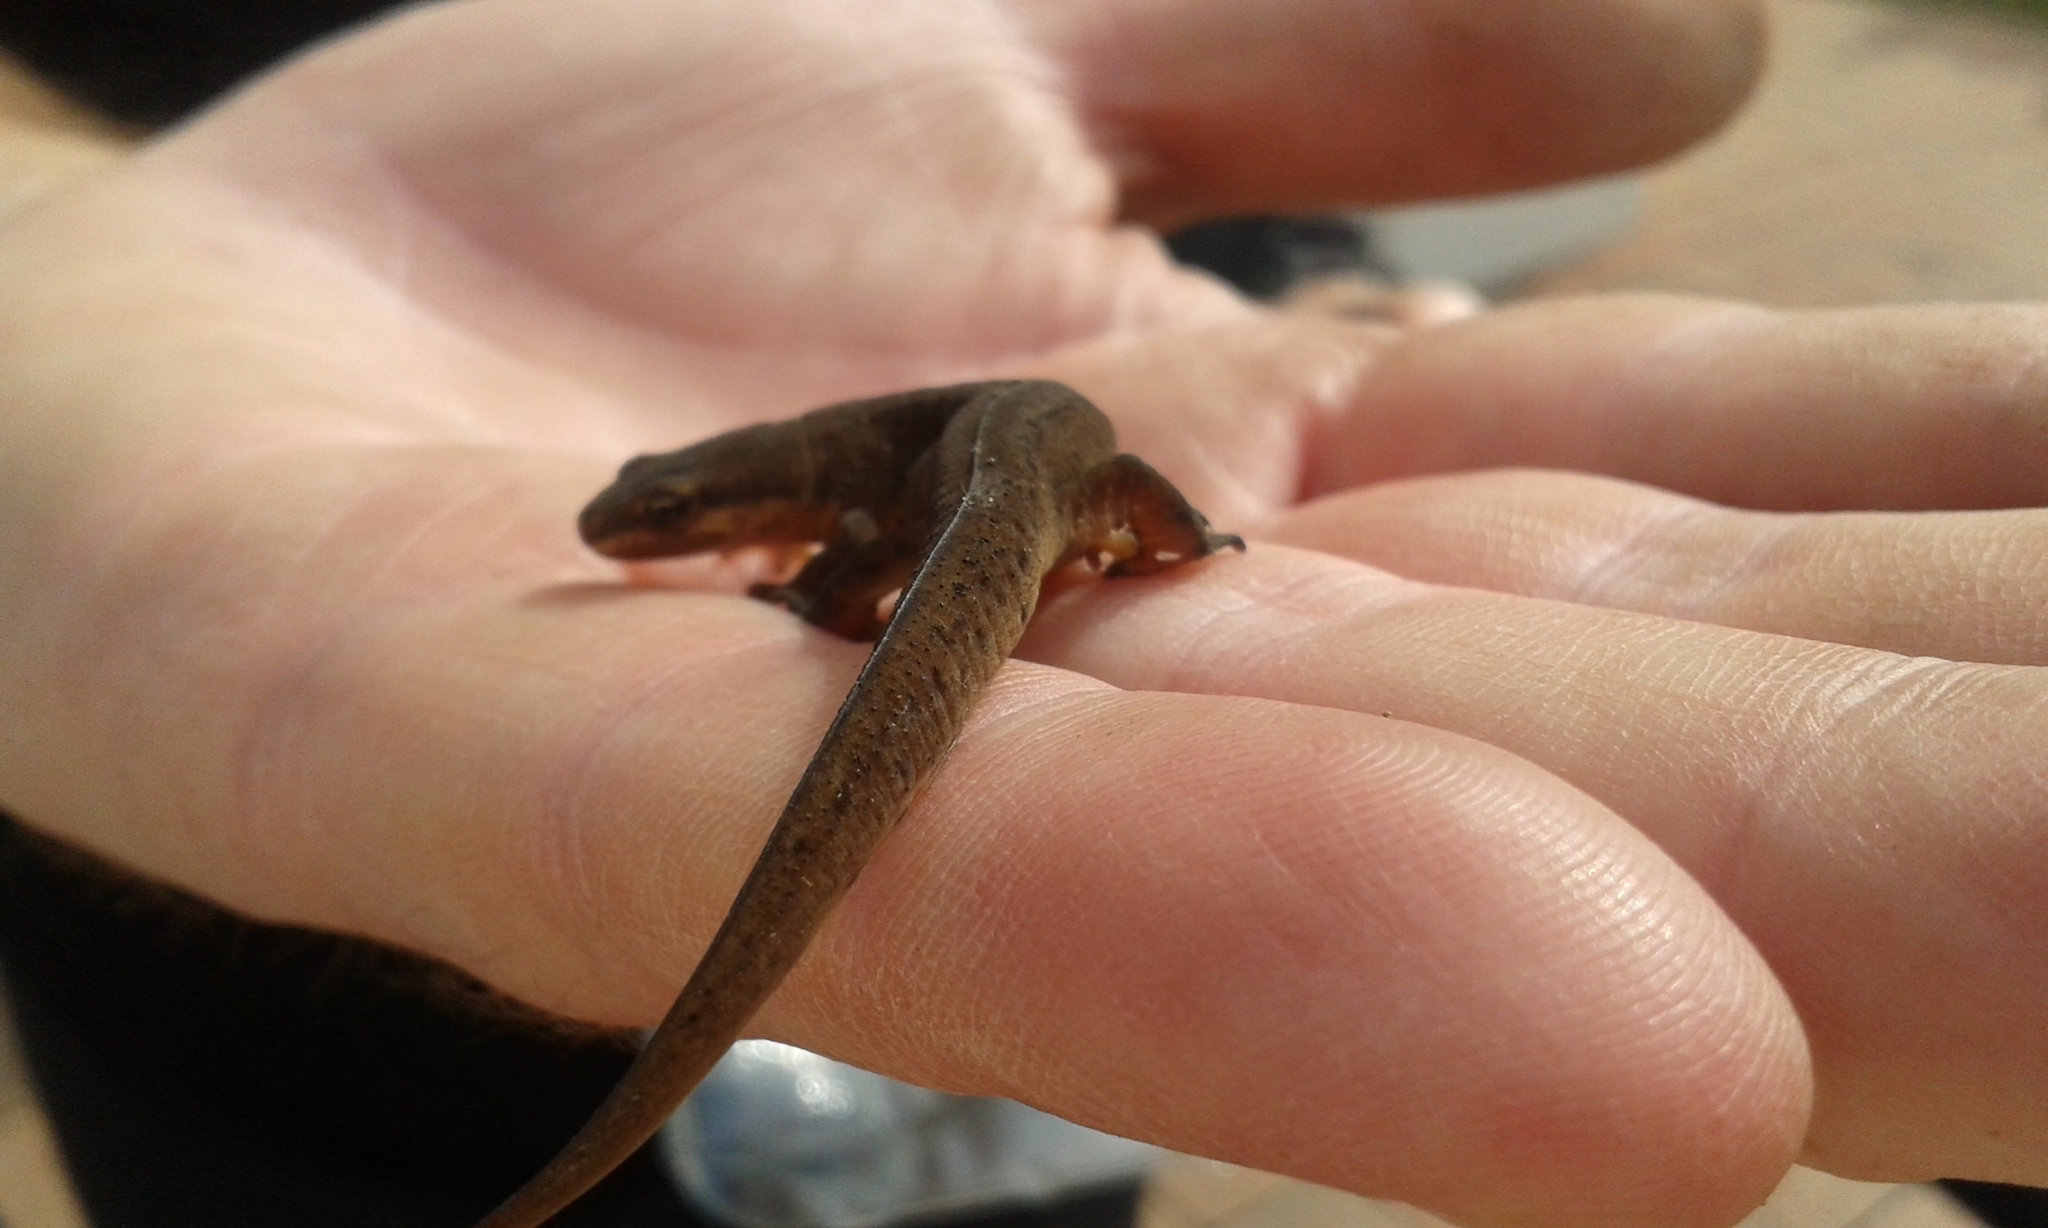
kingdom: Animalia
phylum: Chordata
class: Amphibia
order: Caudata
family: Salamandridae
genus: Lissotriton
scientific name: Lissotriton vulgaris
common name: Smooth newt
